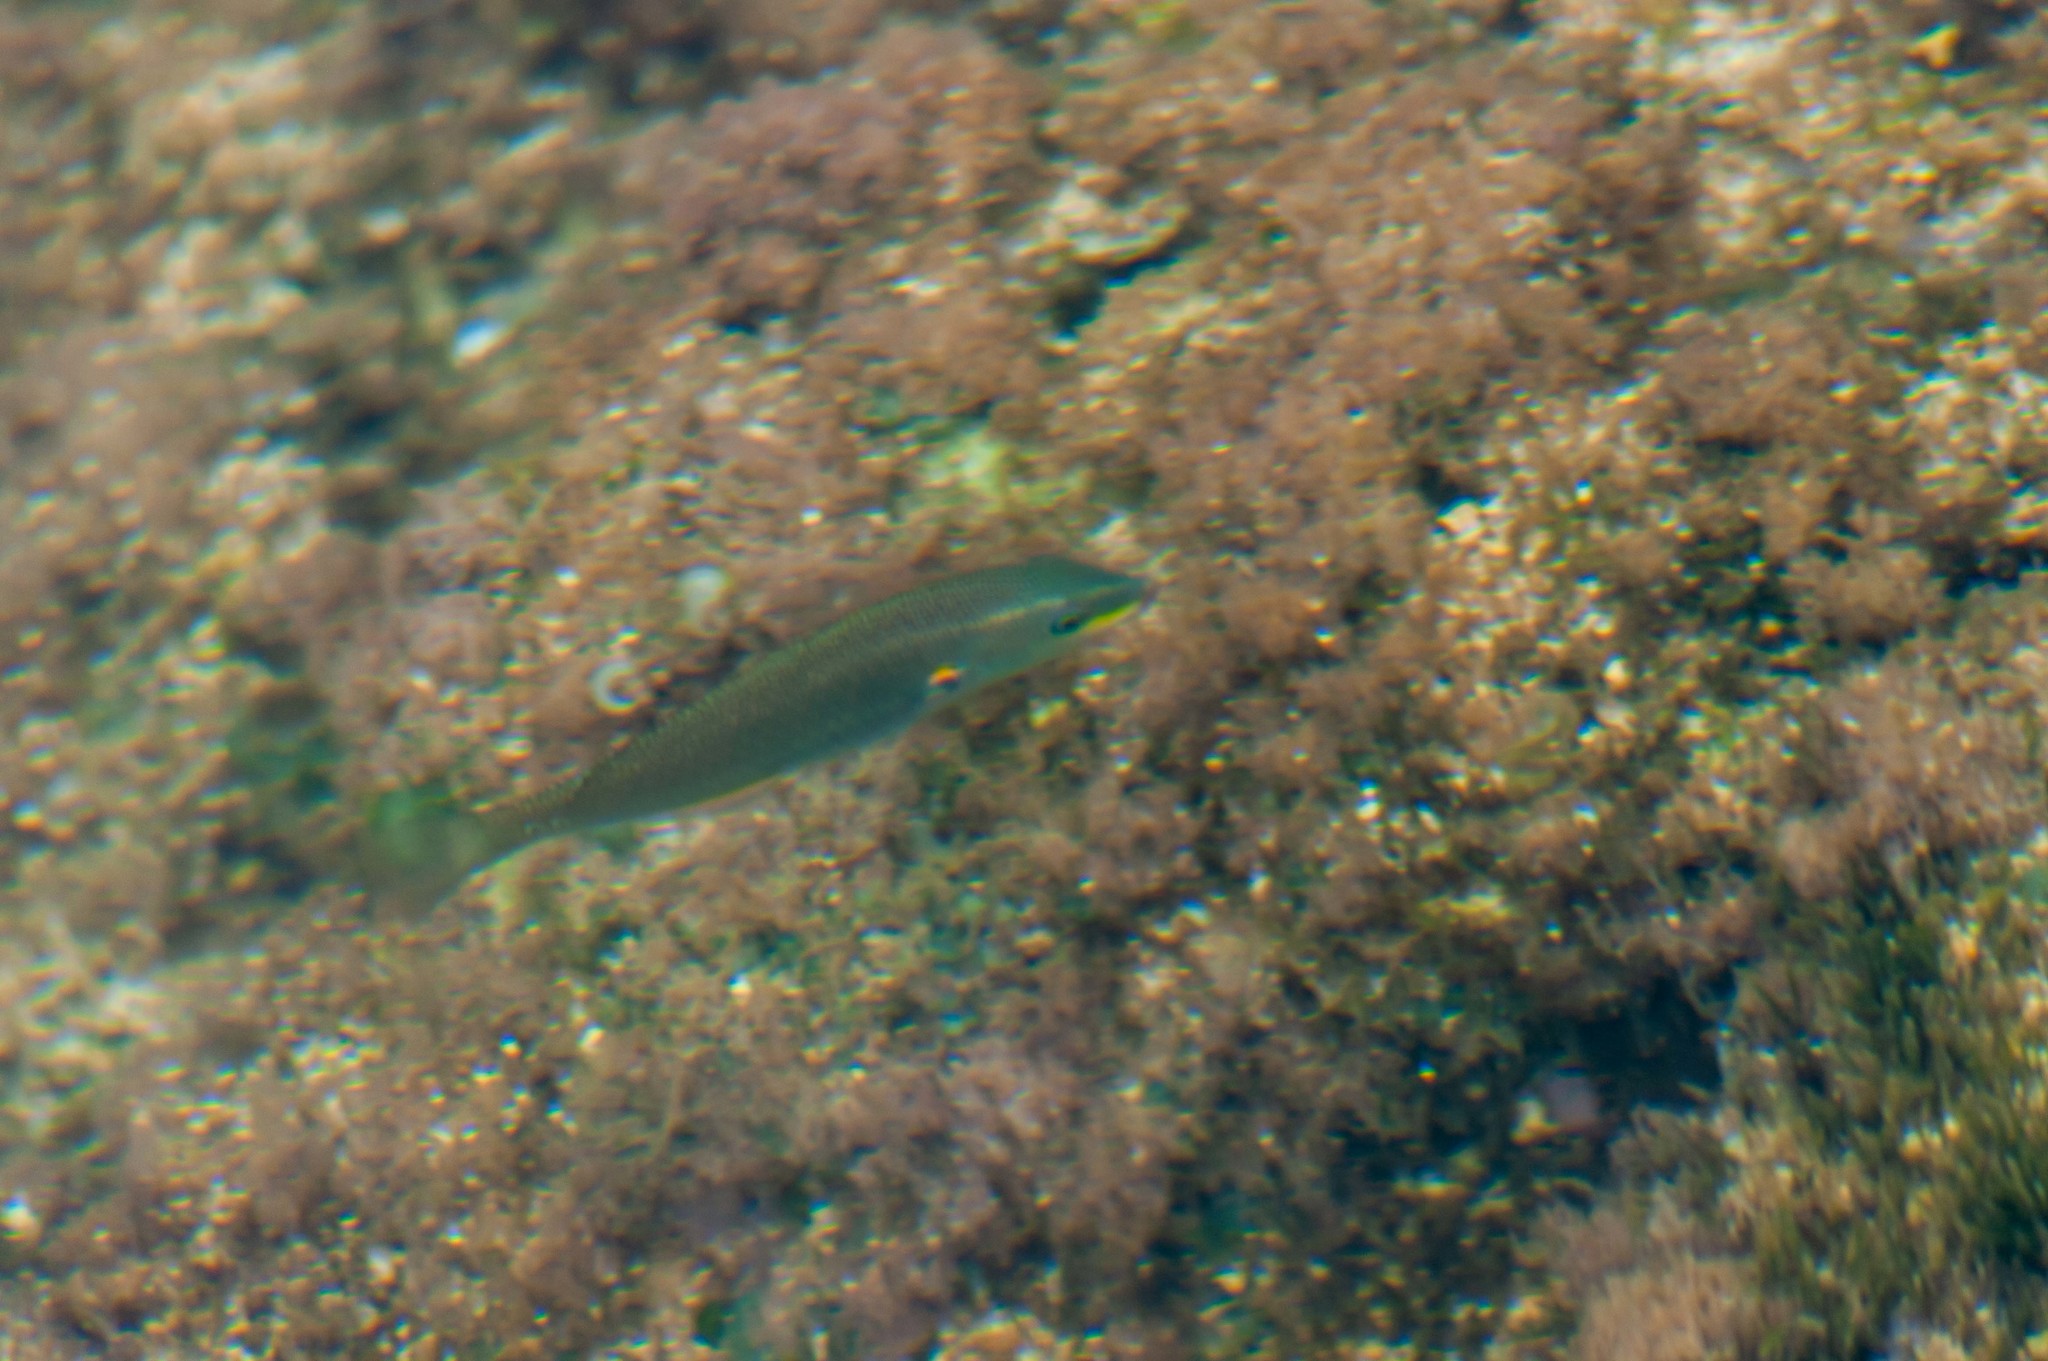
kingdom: Animalia
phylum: Chordata
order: Perciformes
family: Labridae
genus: Stethojulis
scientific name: Stethojulis balteata
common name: Belted wrasse
